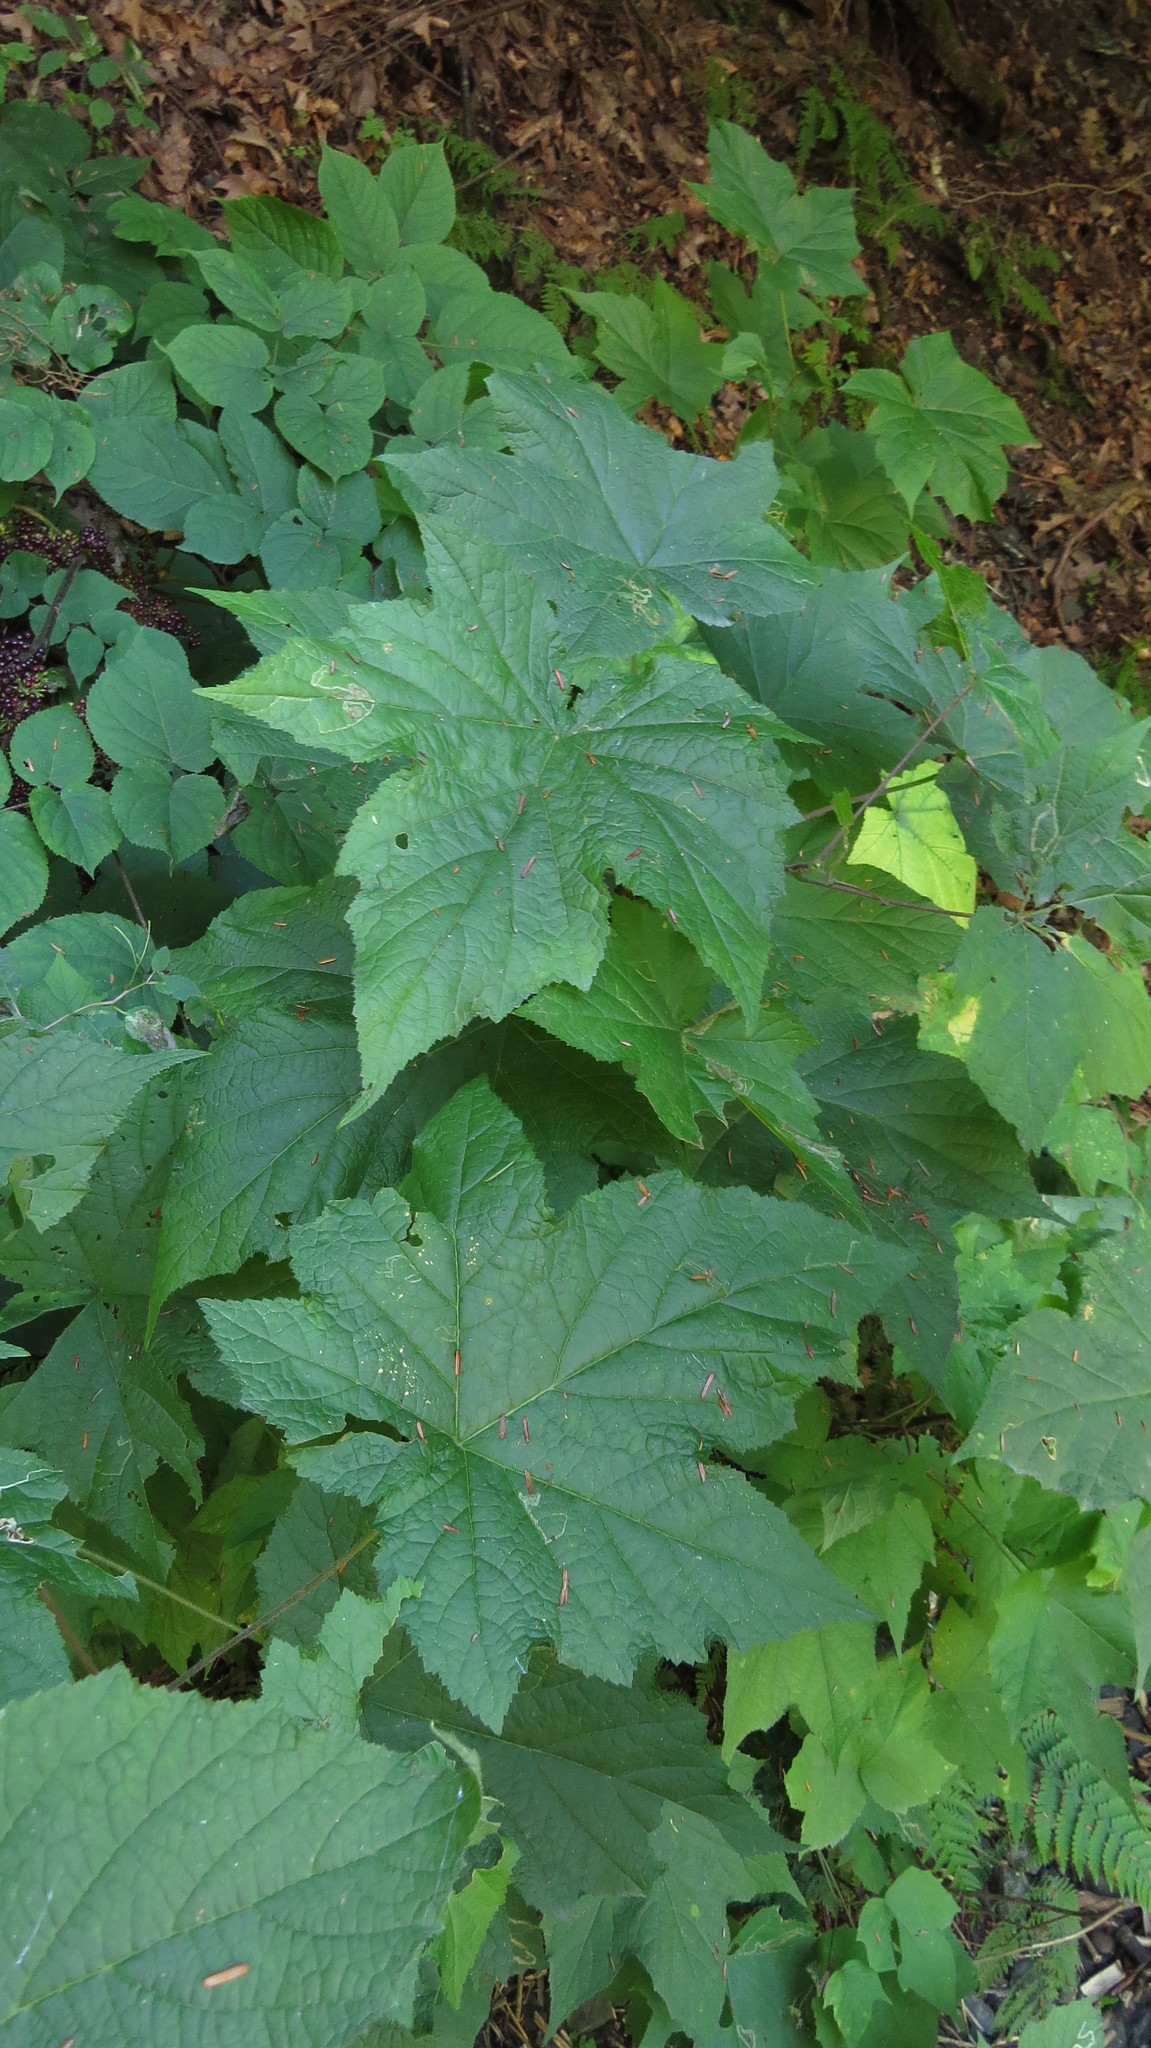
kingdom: Plantae
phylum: Tracheophyta
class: Magnoliopsida
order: Rosales
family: Rosaceae
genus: Rubus
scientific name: Rubus odoratus
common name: Purple-flowered raspberry
